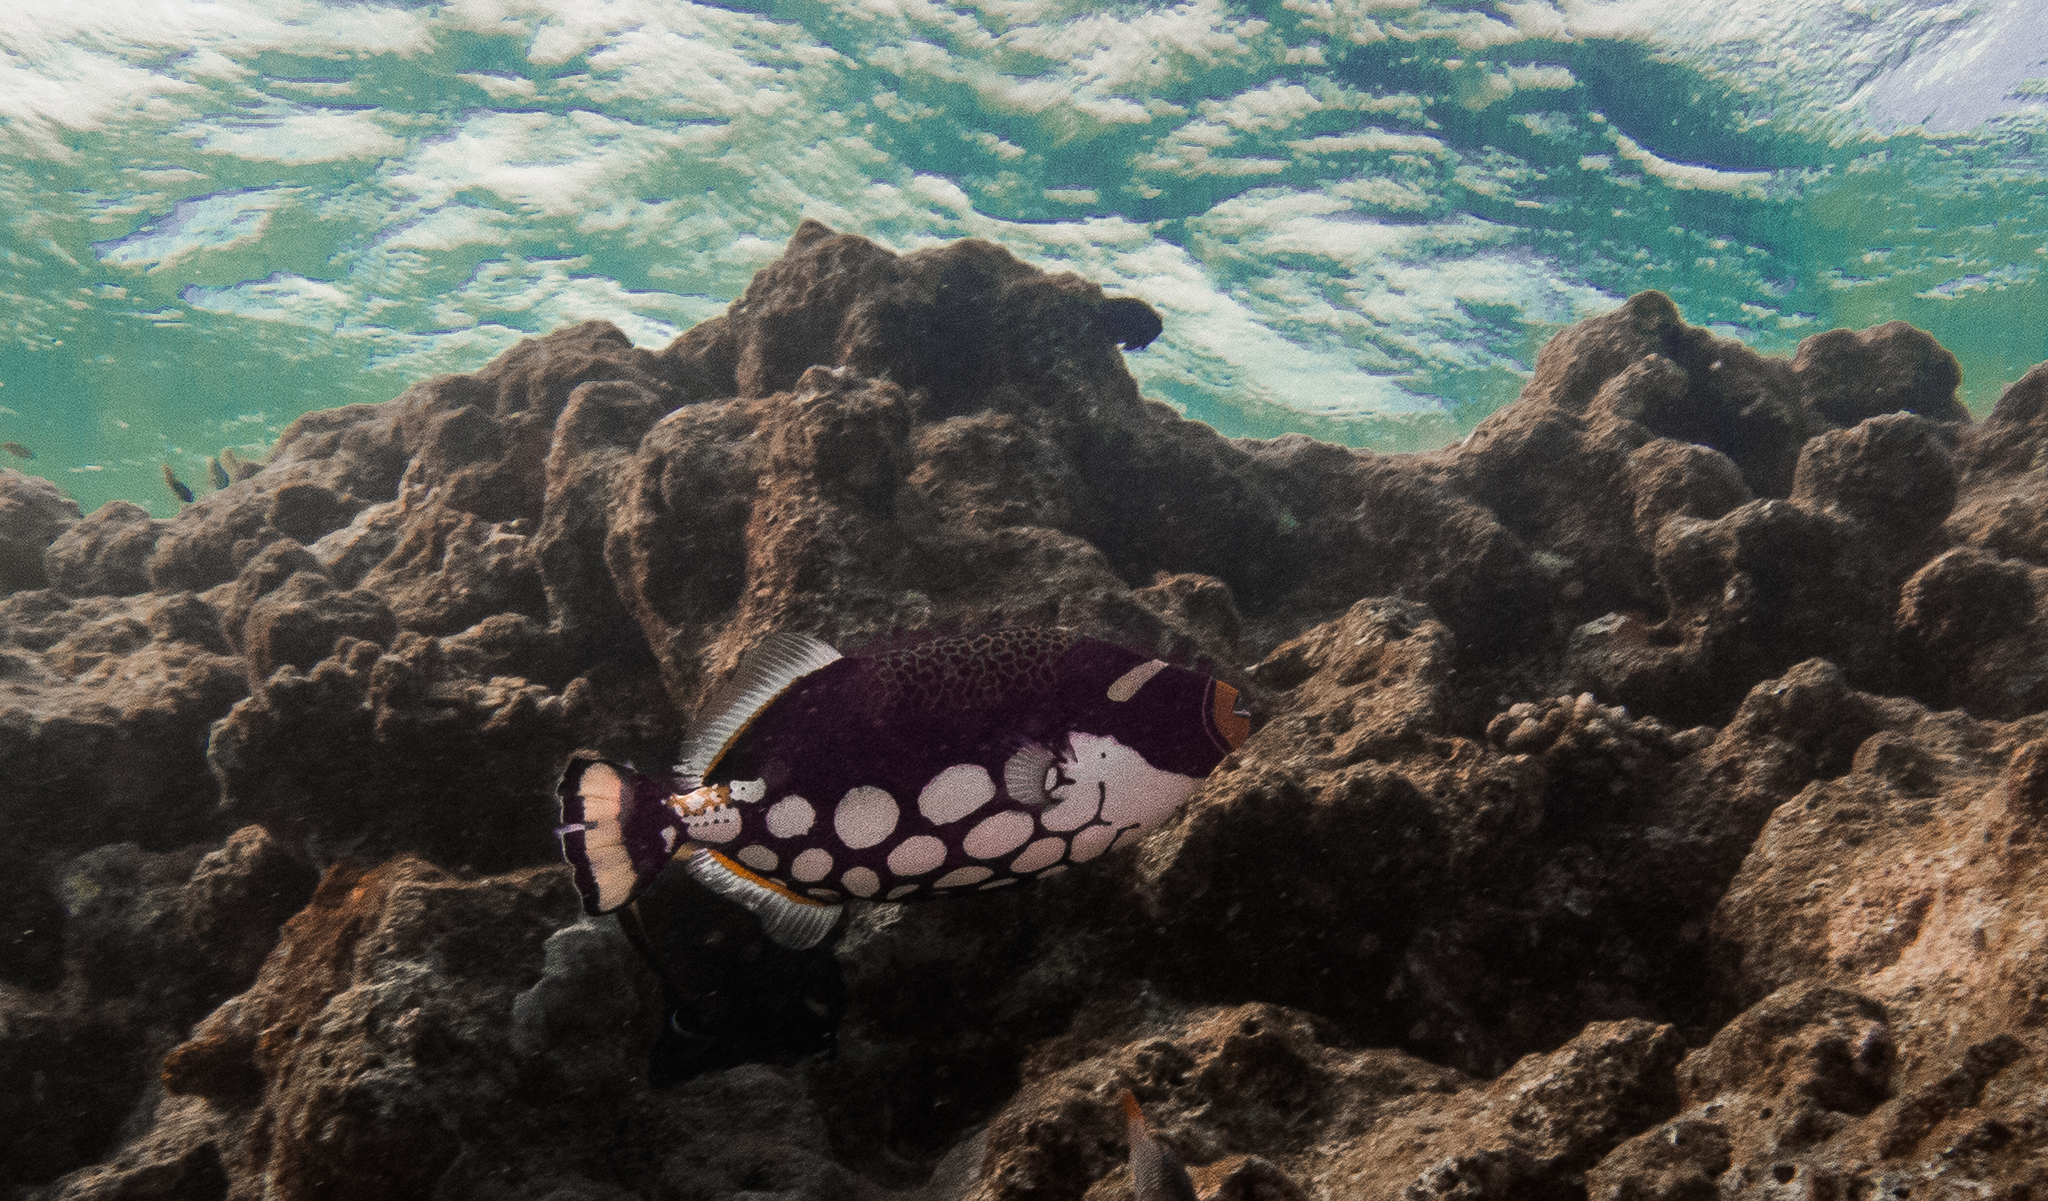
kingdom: Animalia
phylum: Chordata
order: Tetraodontiformes
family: Balistidae
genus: Balistoides
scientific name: Balistoides conspicillum
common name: Clown triggerfish
